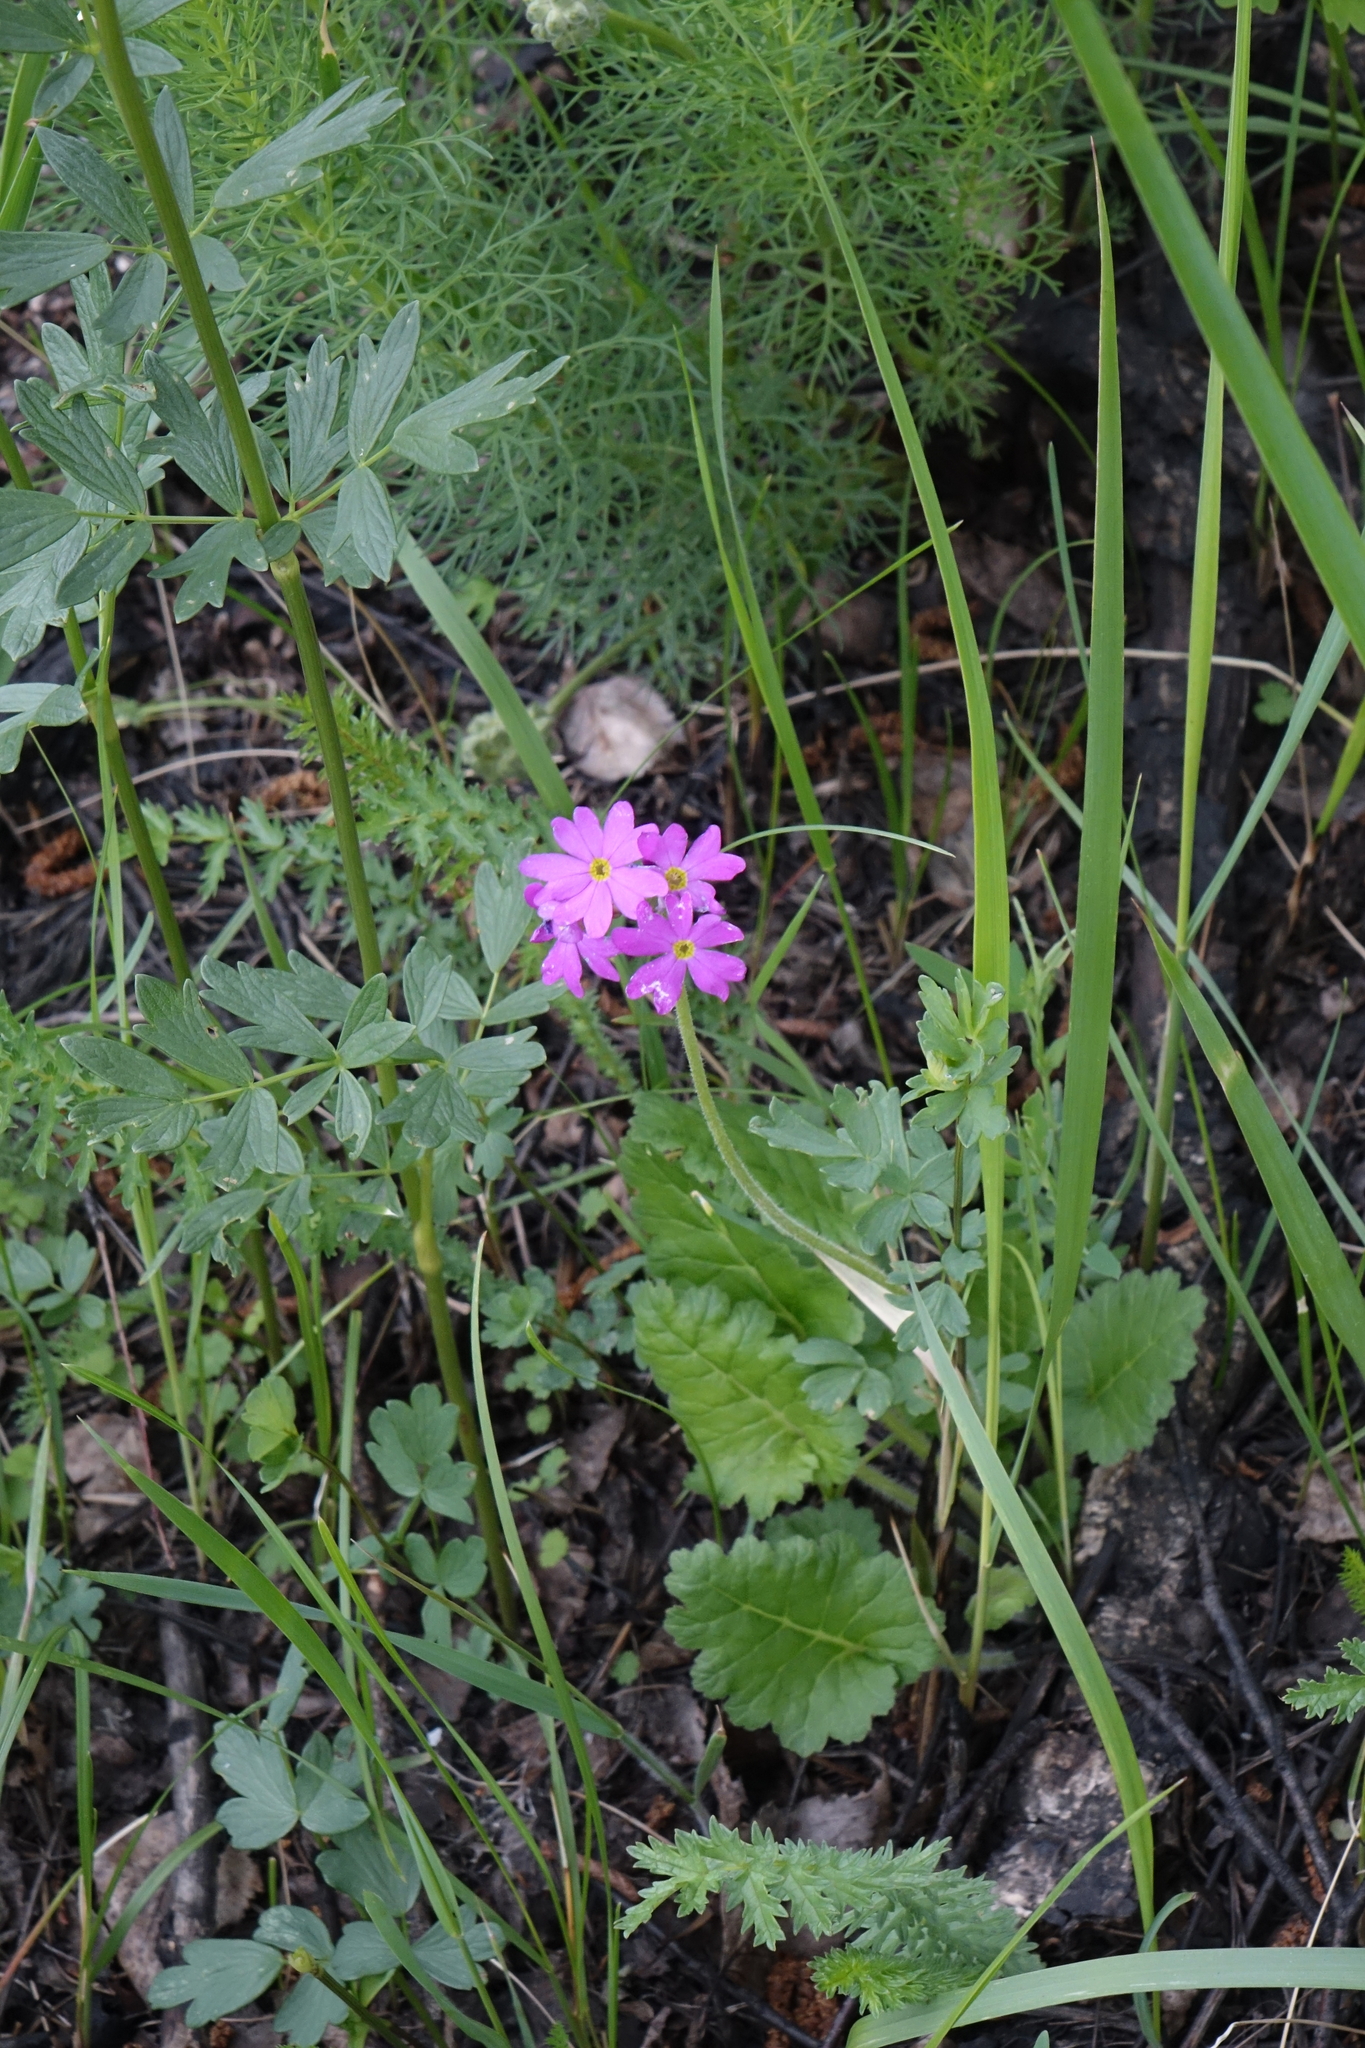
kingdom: Plantae
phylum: Tracheophyta
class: Magnoliopsida
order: Ericales
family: Primulaceae
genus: Primula
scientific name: Primula cortusoides
